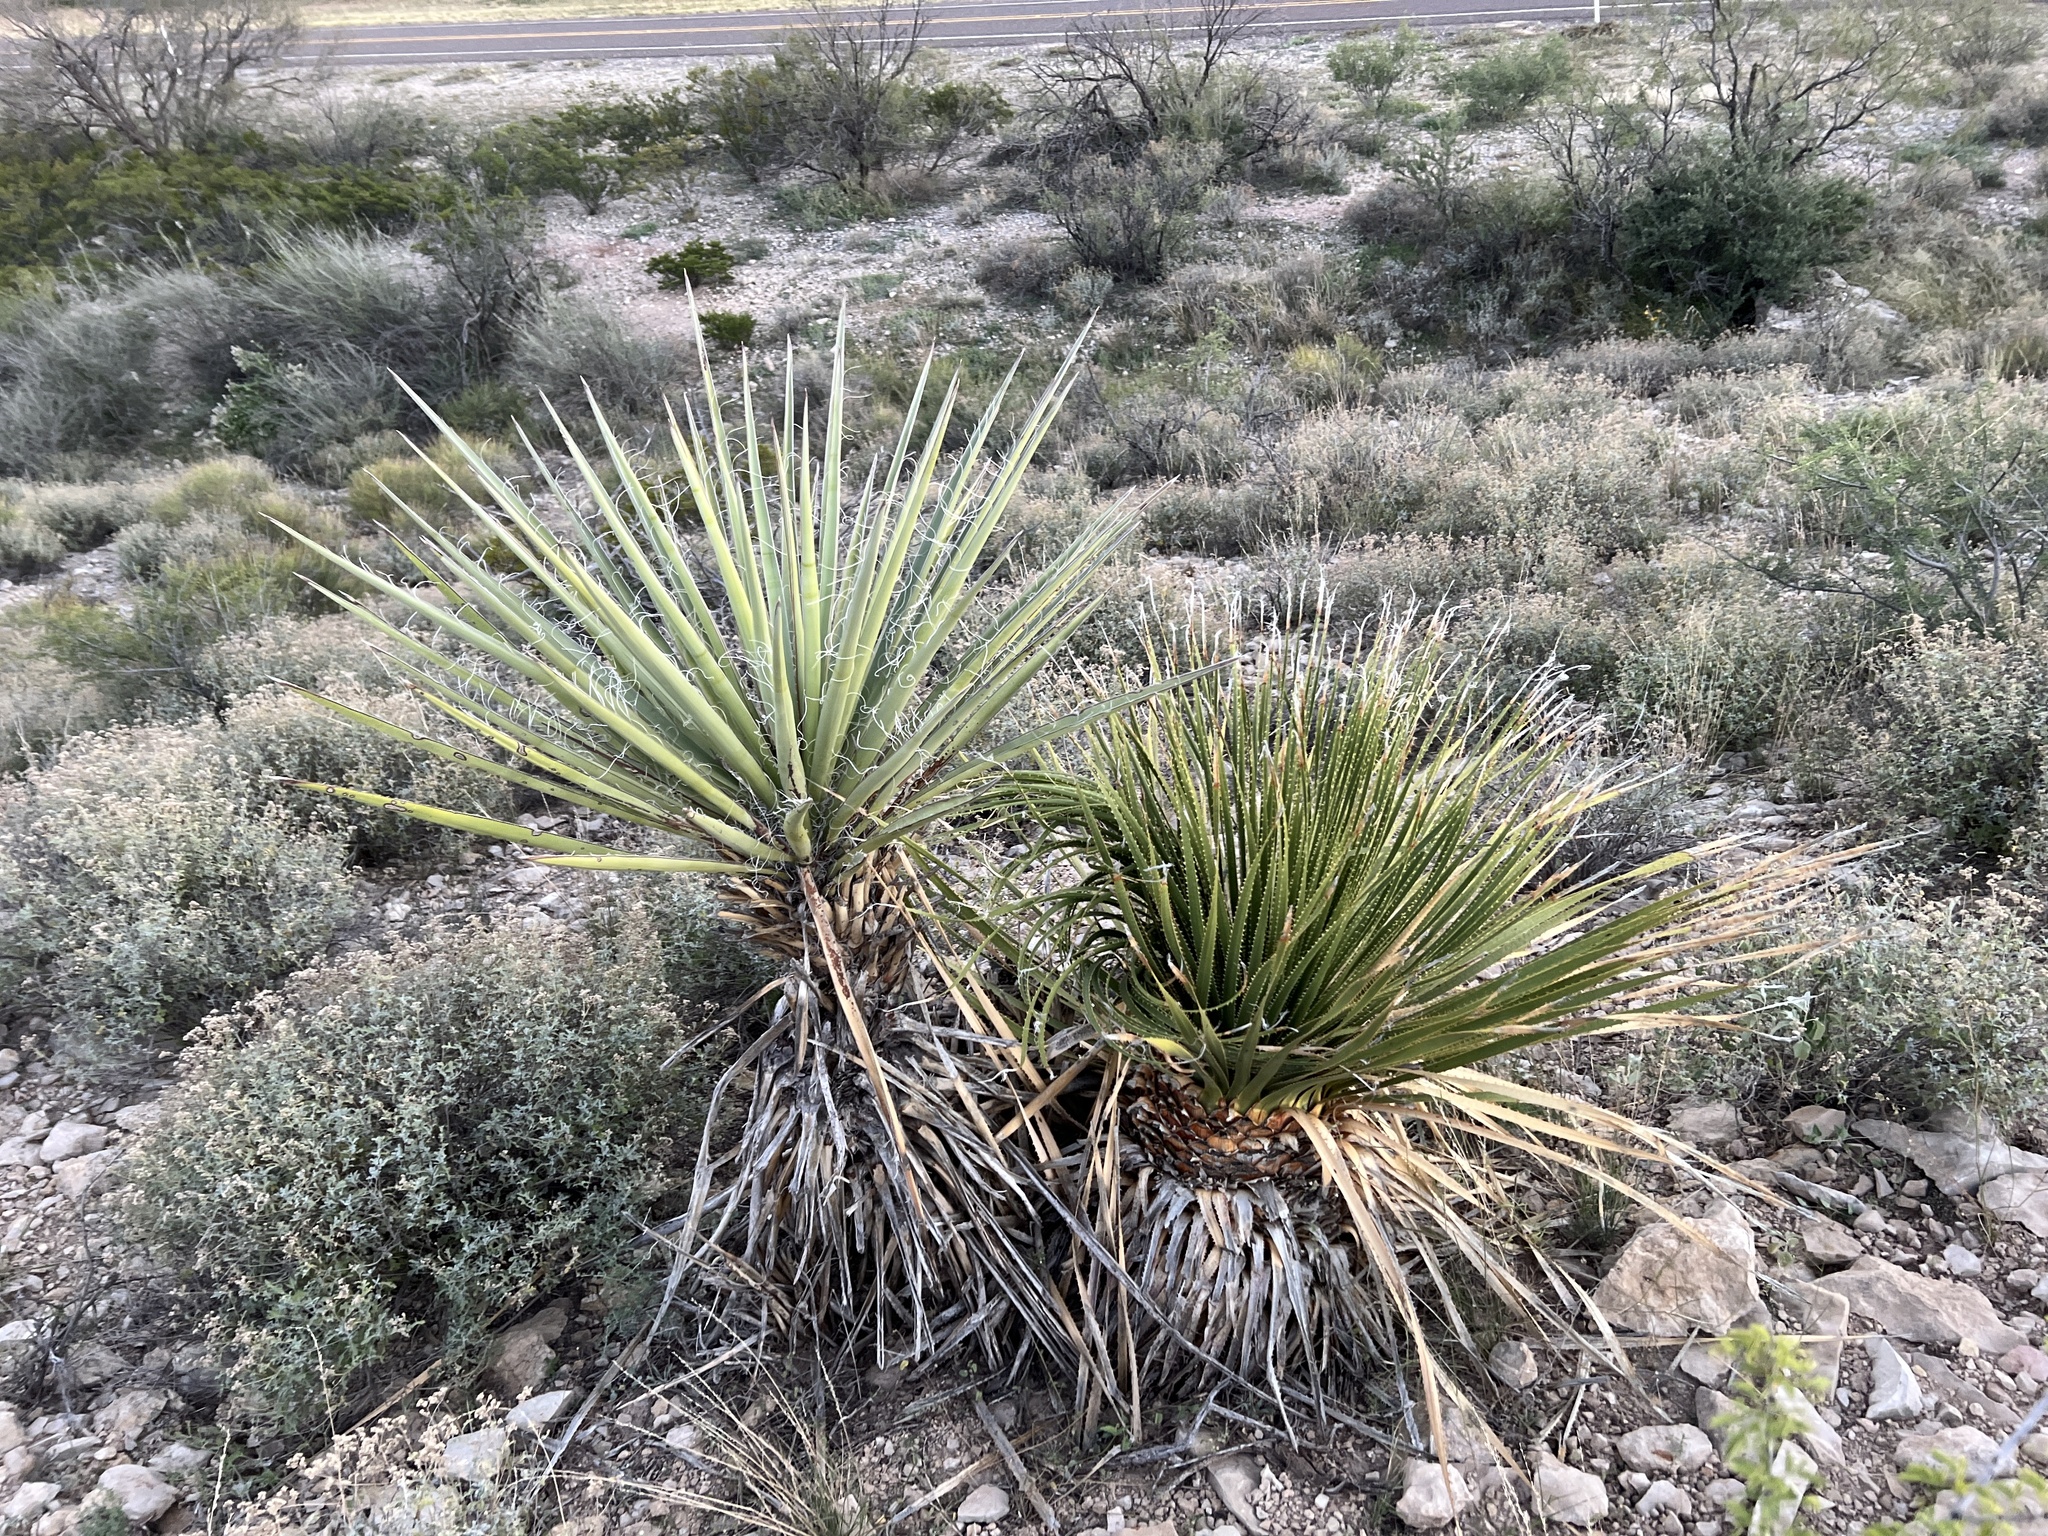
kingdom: Plantae
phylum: Tracheophyta
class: Liliopsida
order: Asparagales
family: Asparagaceae
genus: Yucca
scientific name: Yucca treculiana
